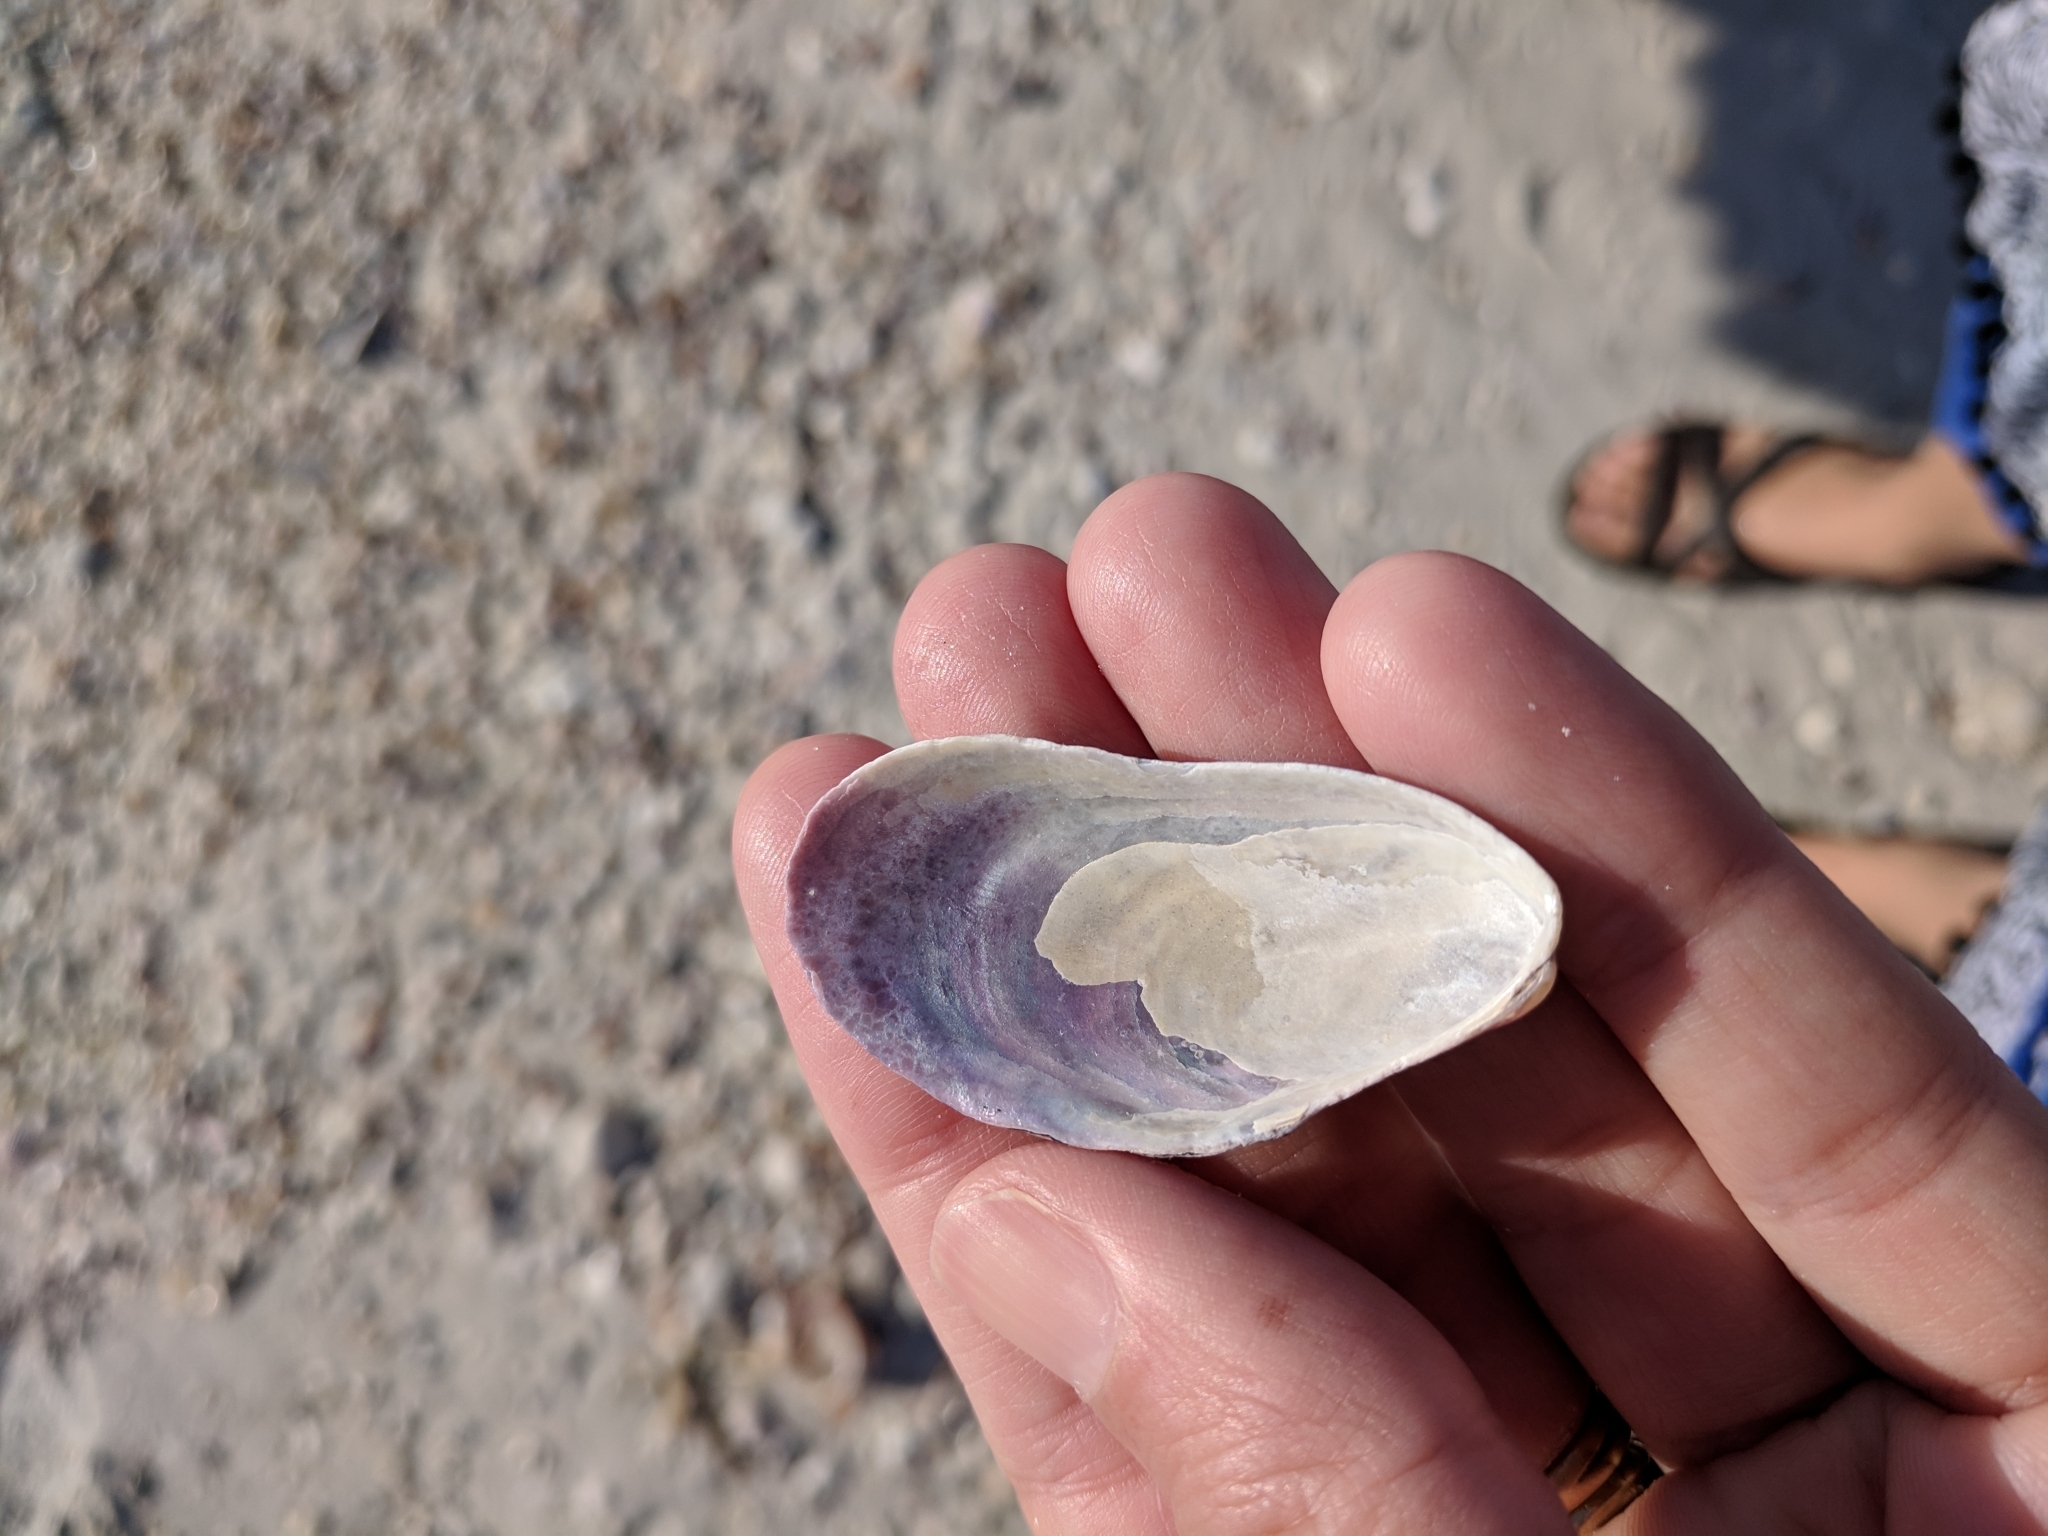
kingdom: Animalia
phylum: Mollusca
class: Bivalvia
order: Mytilida
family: Mytilidae
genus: Modiolus
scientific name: Modiolus squamosus
